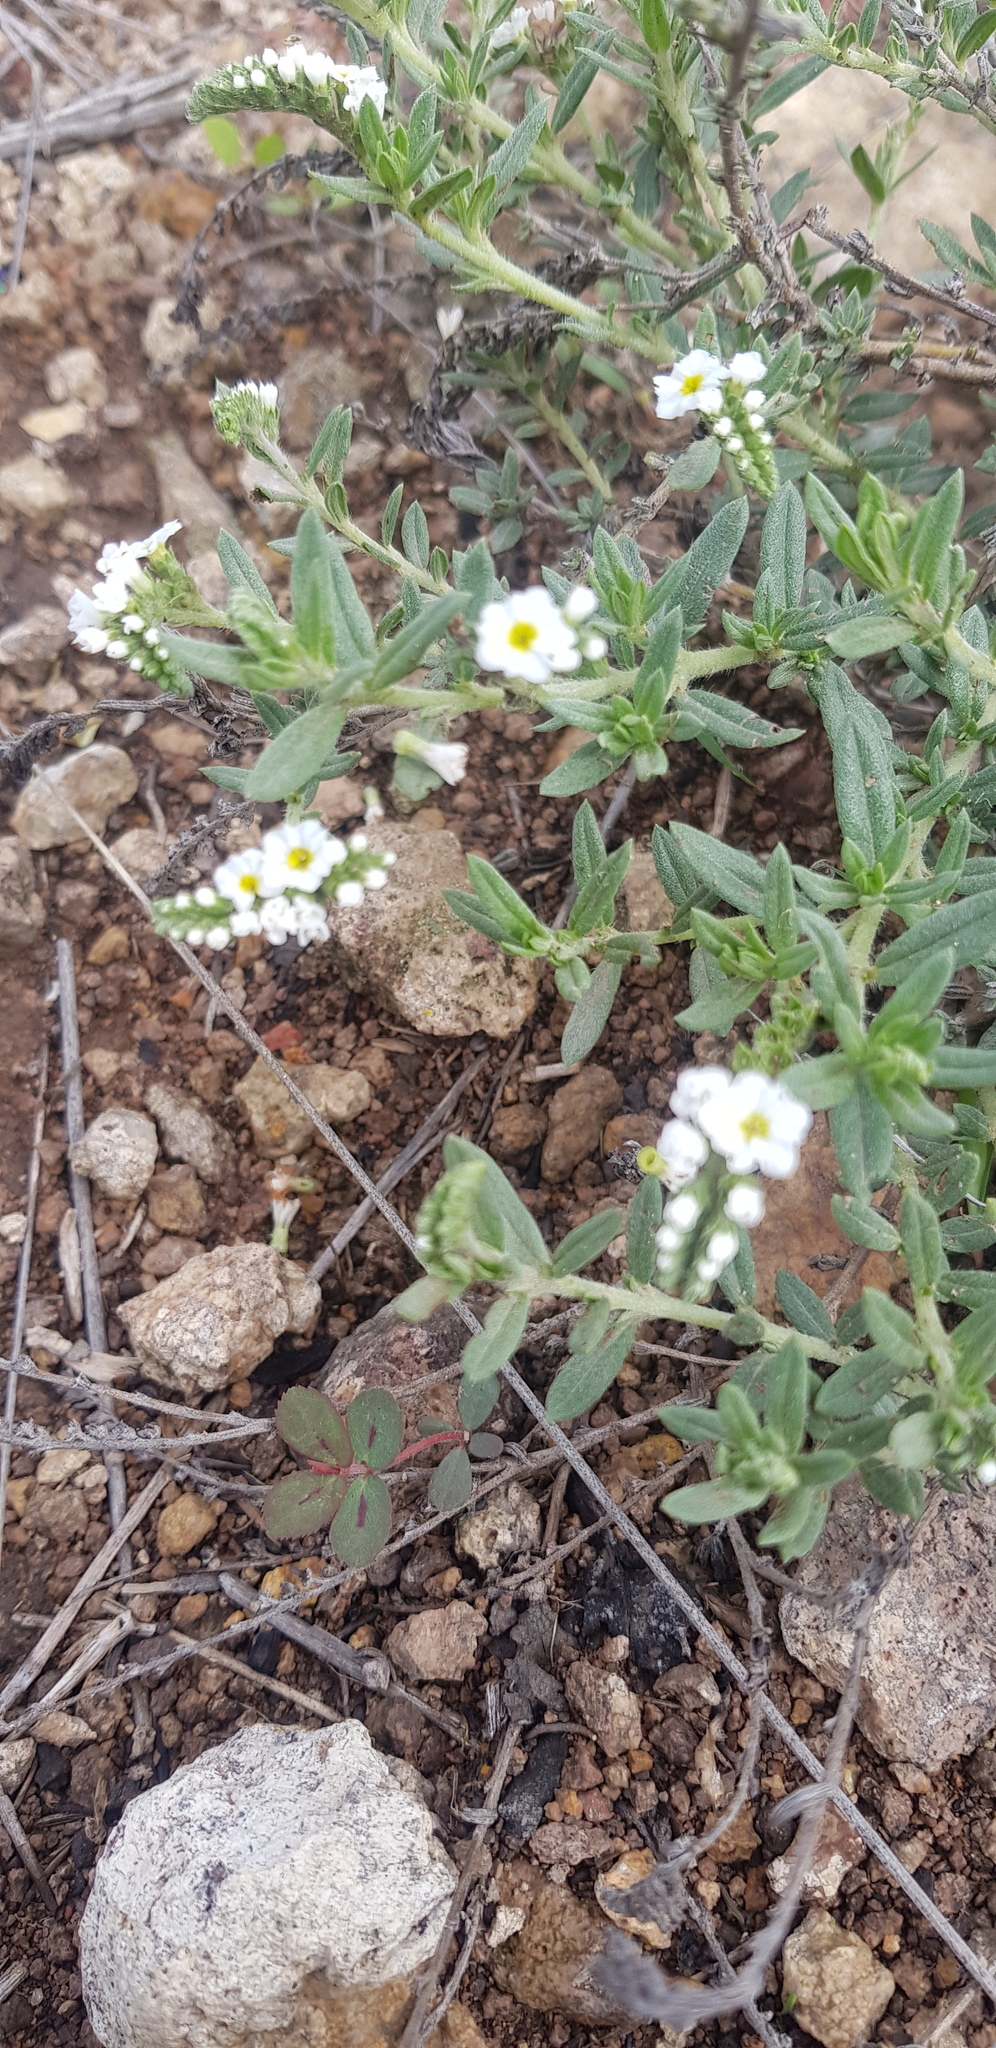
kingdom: Plantae
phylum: Tracheophyta
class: Magnoliopsida
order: Boraginales
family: Heliotropiaceae
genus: Euploca
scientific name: Euploca procumbens
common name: Fourspike heliotrope
